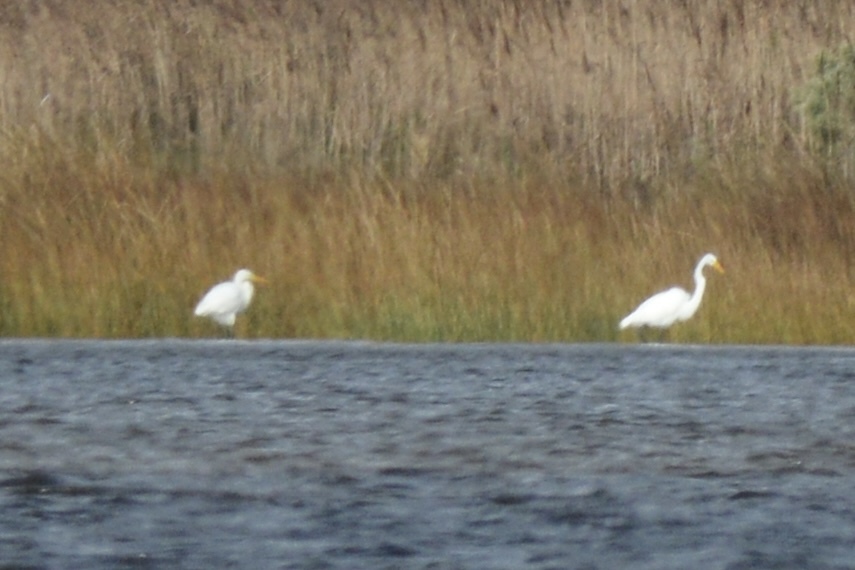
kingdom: Animalia
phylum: Chordata
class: Aves
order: Pelecaniformes
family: Ardeidae
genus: Ardea
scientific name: Ardea alba
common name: Great egret
